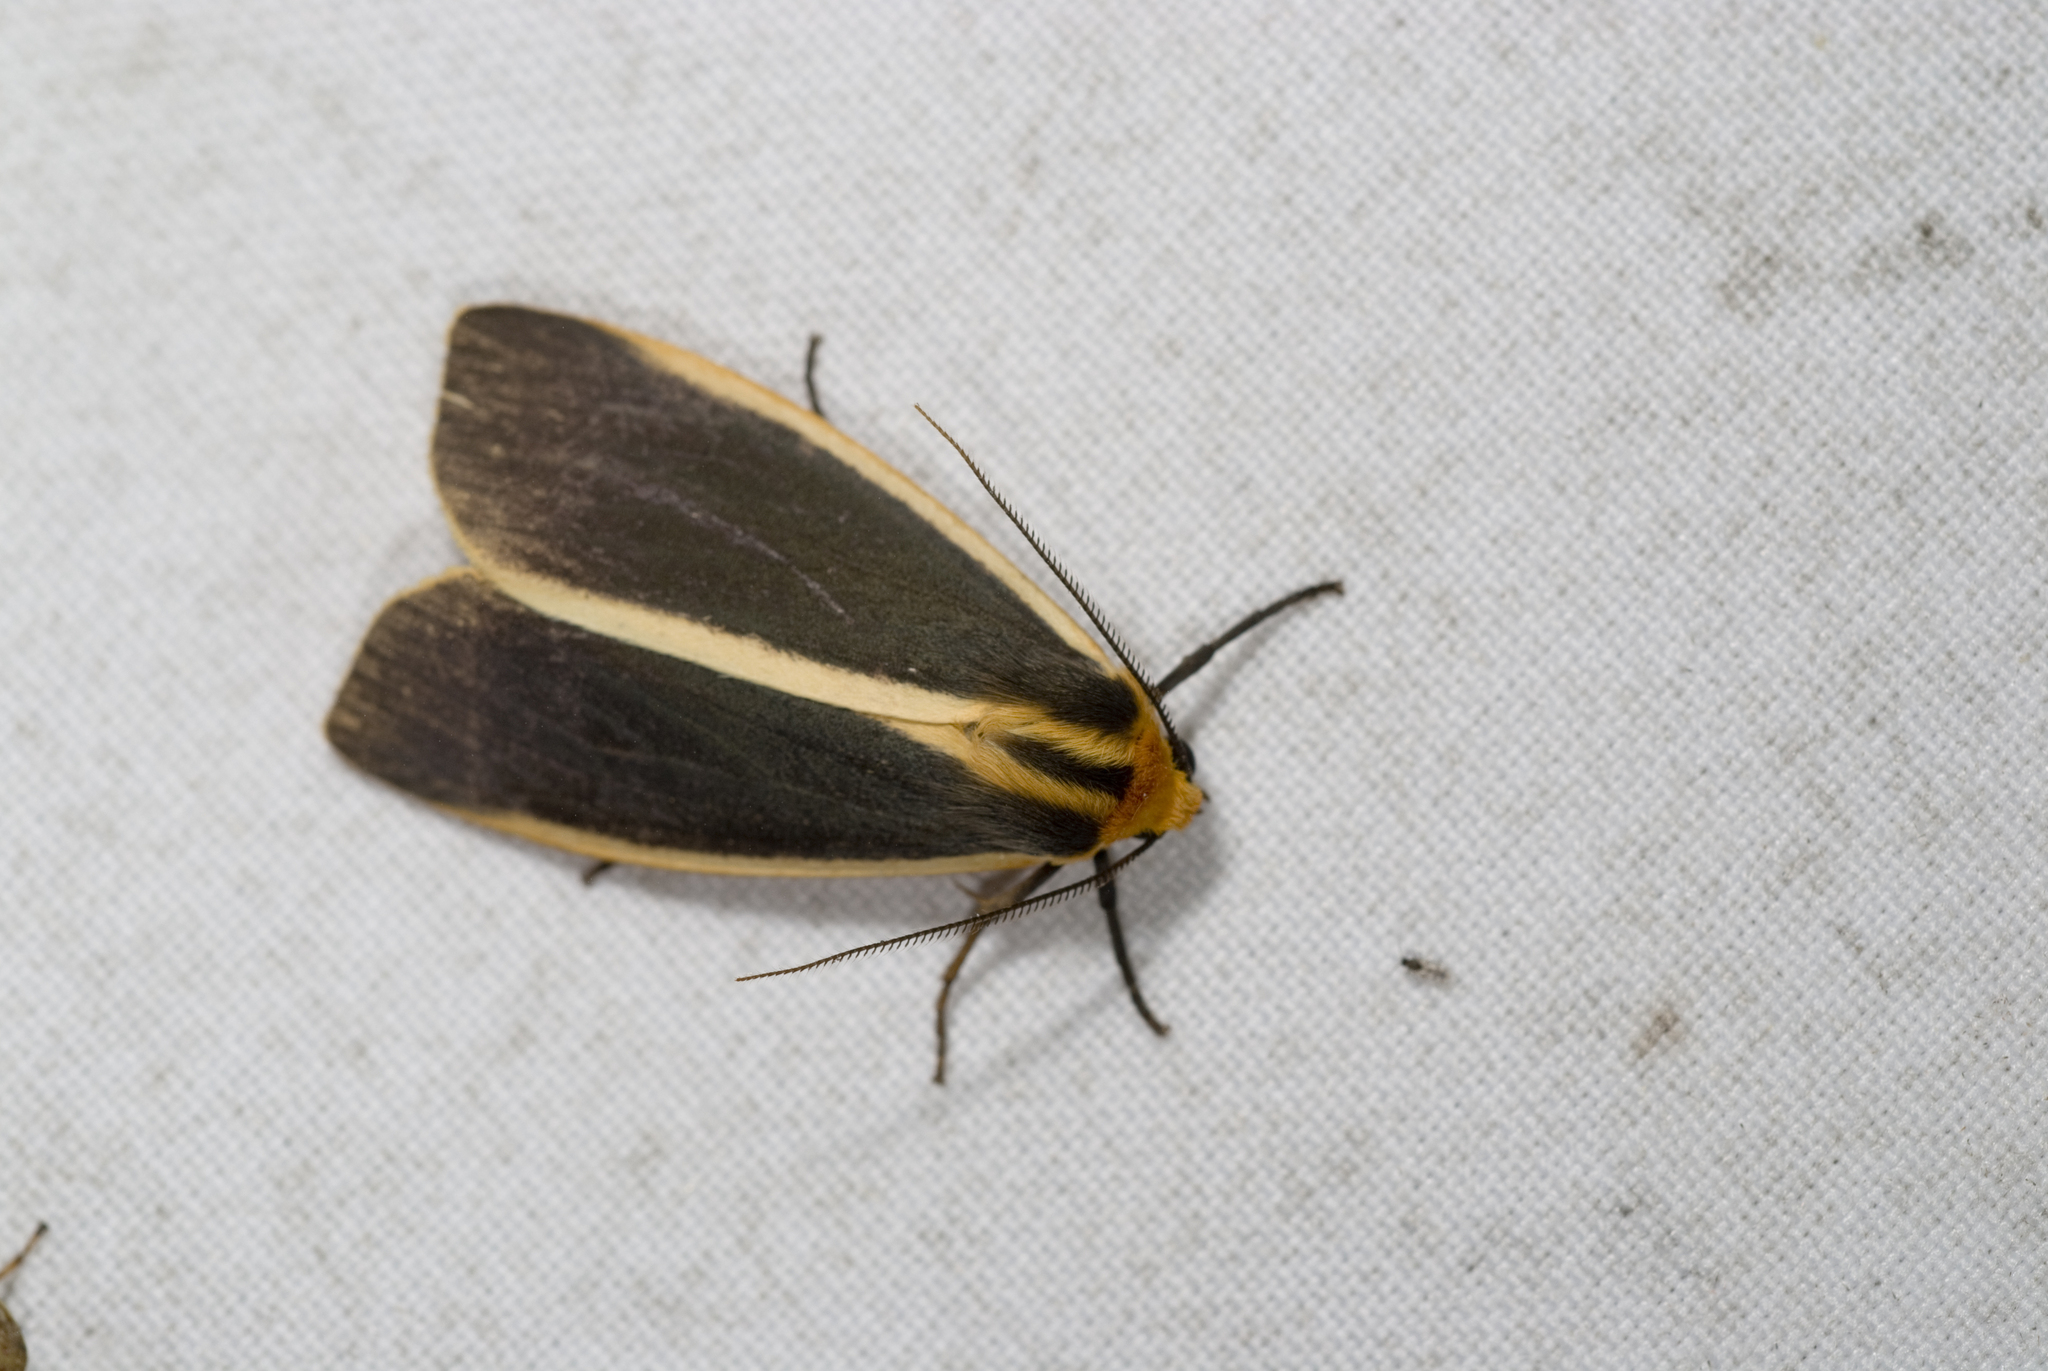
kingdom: Animalia
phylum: Arthropoda
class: Insecta
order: Lepidoptera
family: Erebidae
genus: Churinga
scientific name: Churinga virago
